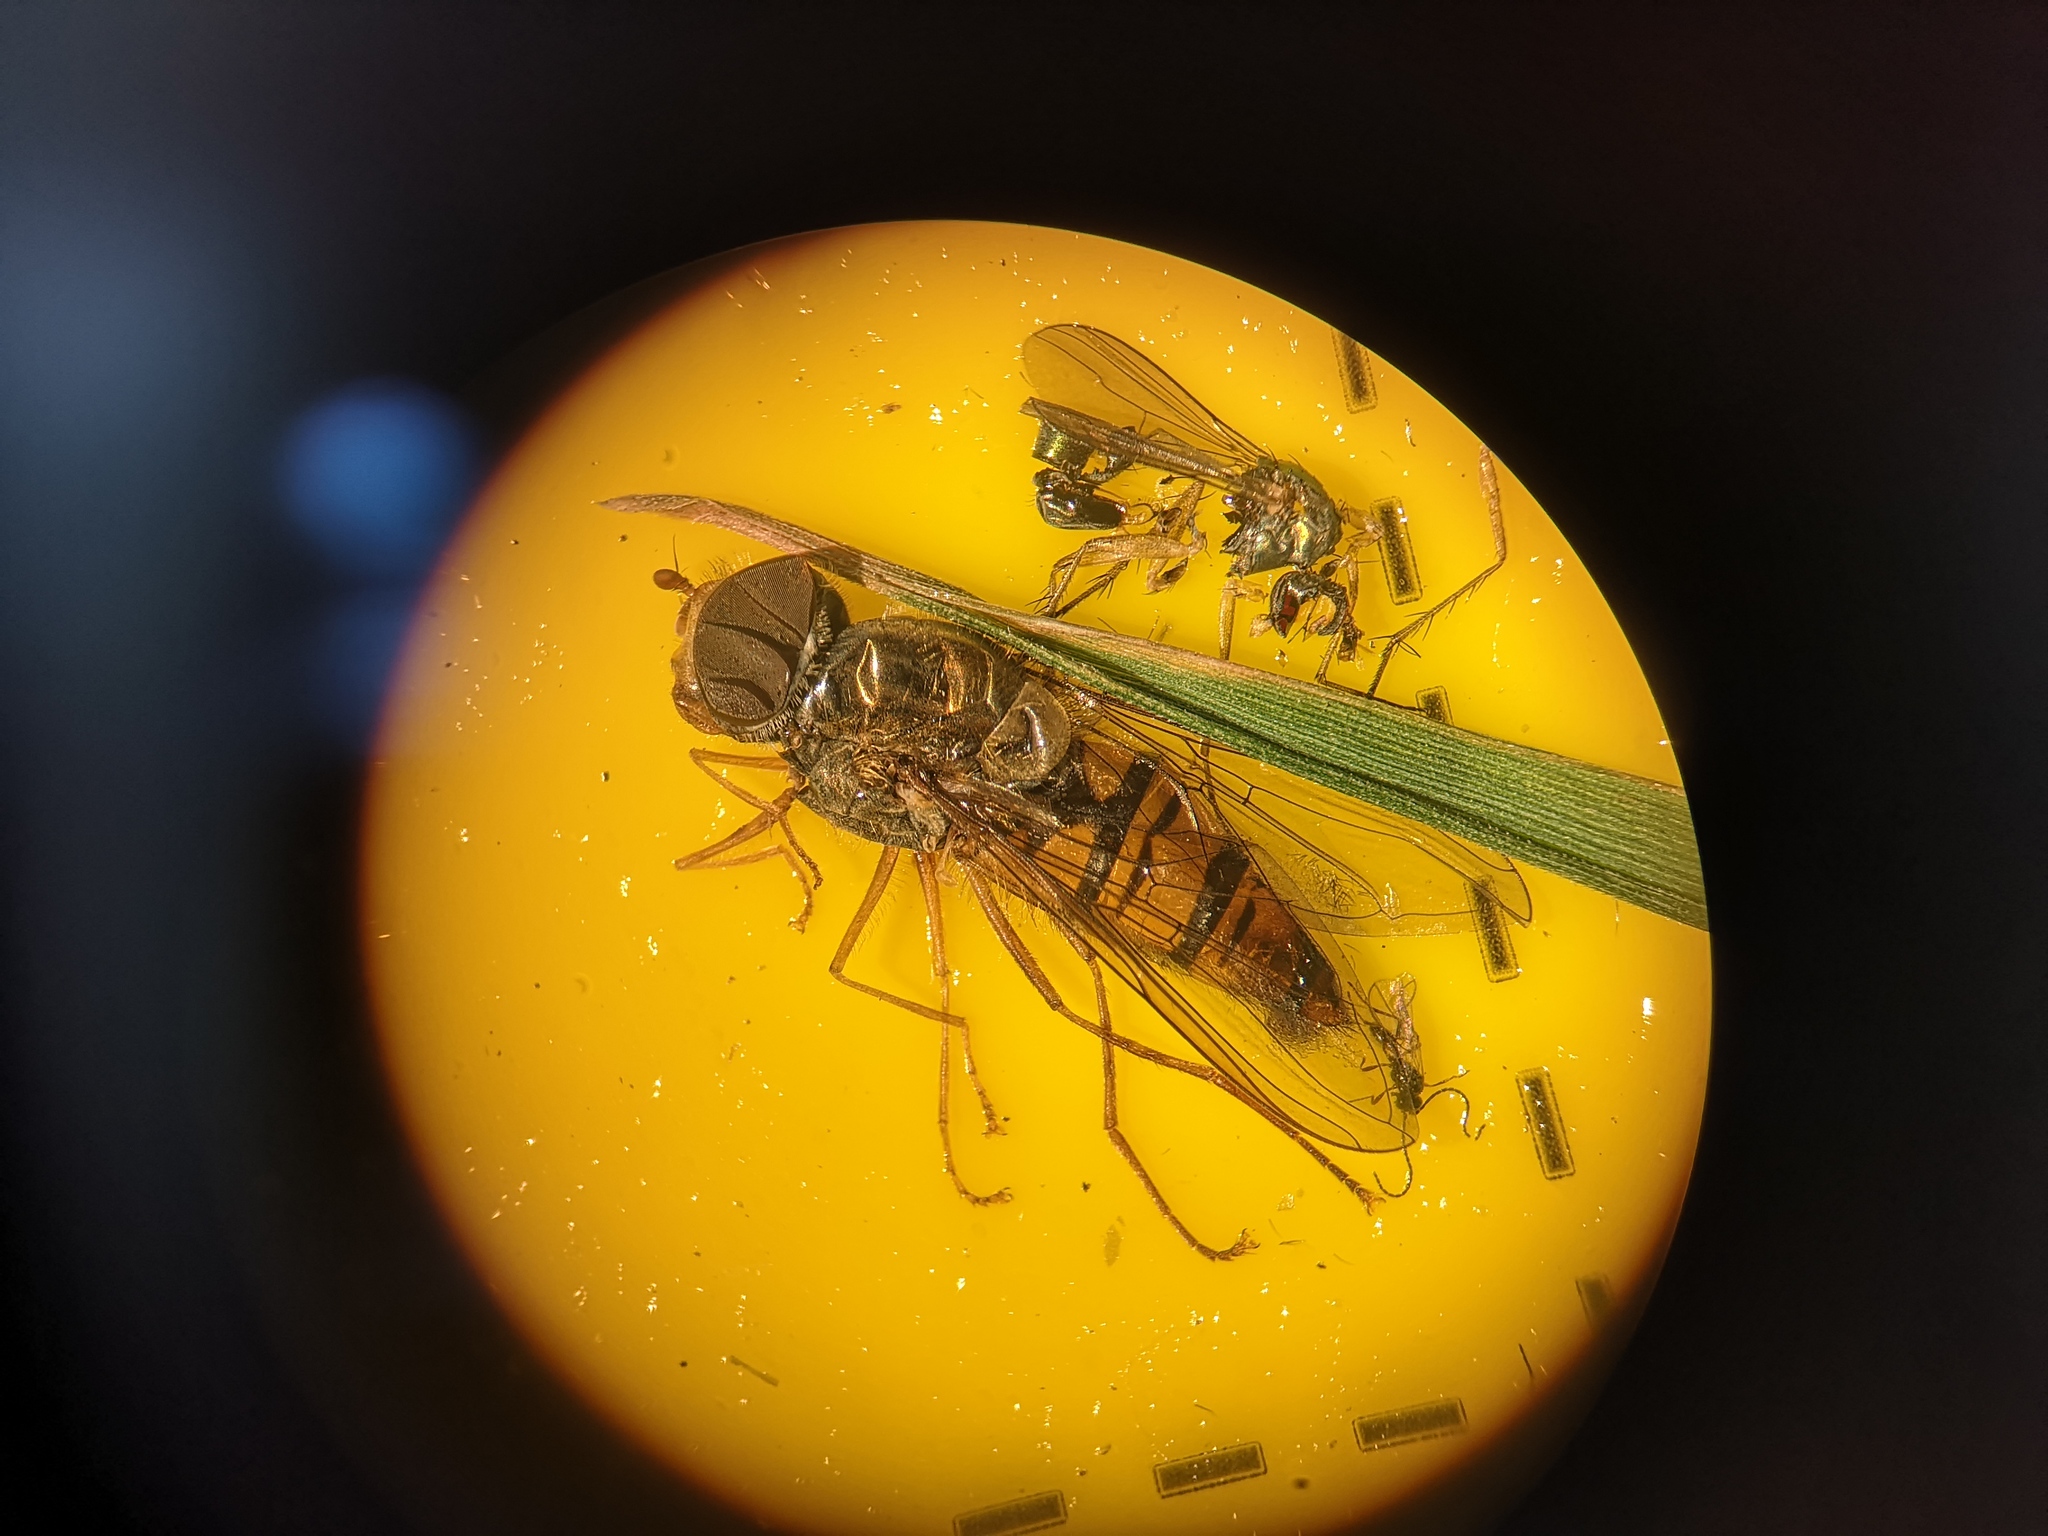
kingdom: Animalia
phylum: Arthropoda
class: Insecta
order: Diptera
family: Syrphidae
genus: Episyrphus
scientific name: Episyrphus balteatus
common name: Marmalade hoverfly
